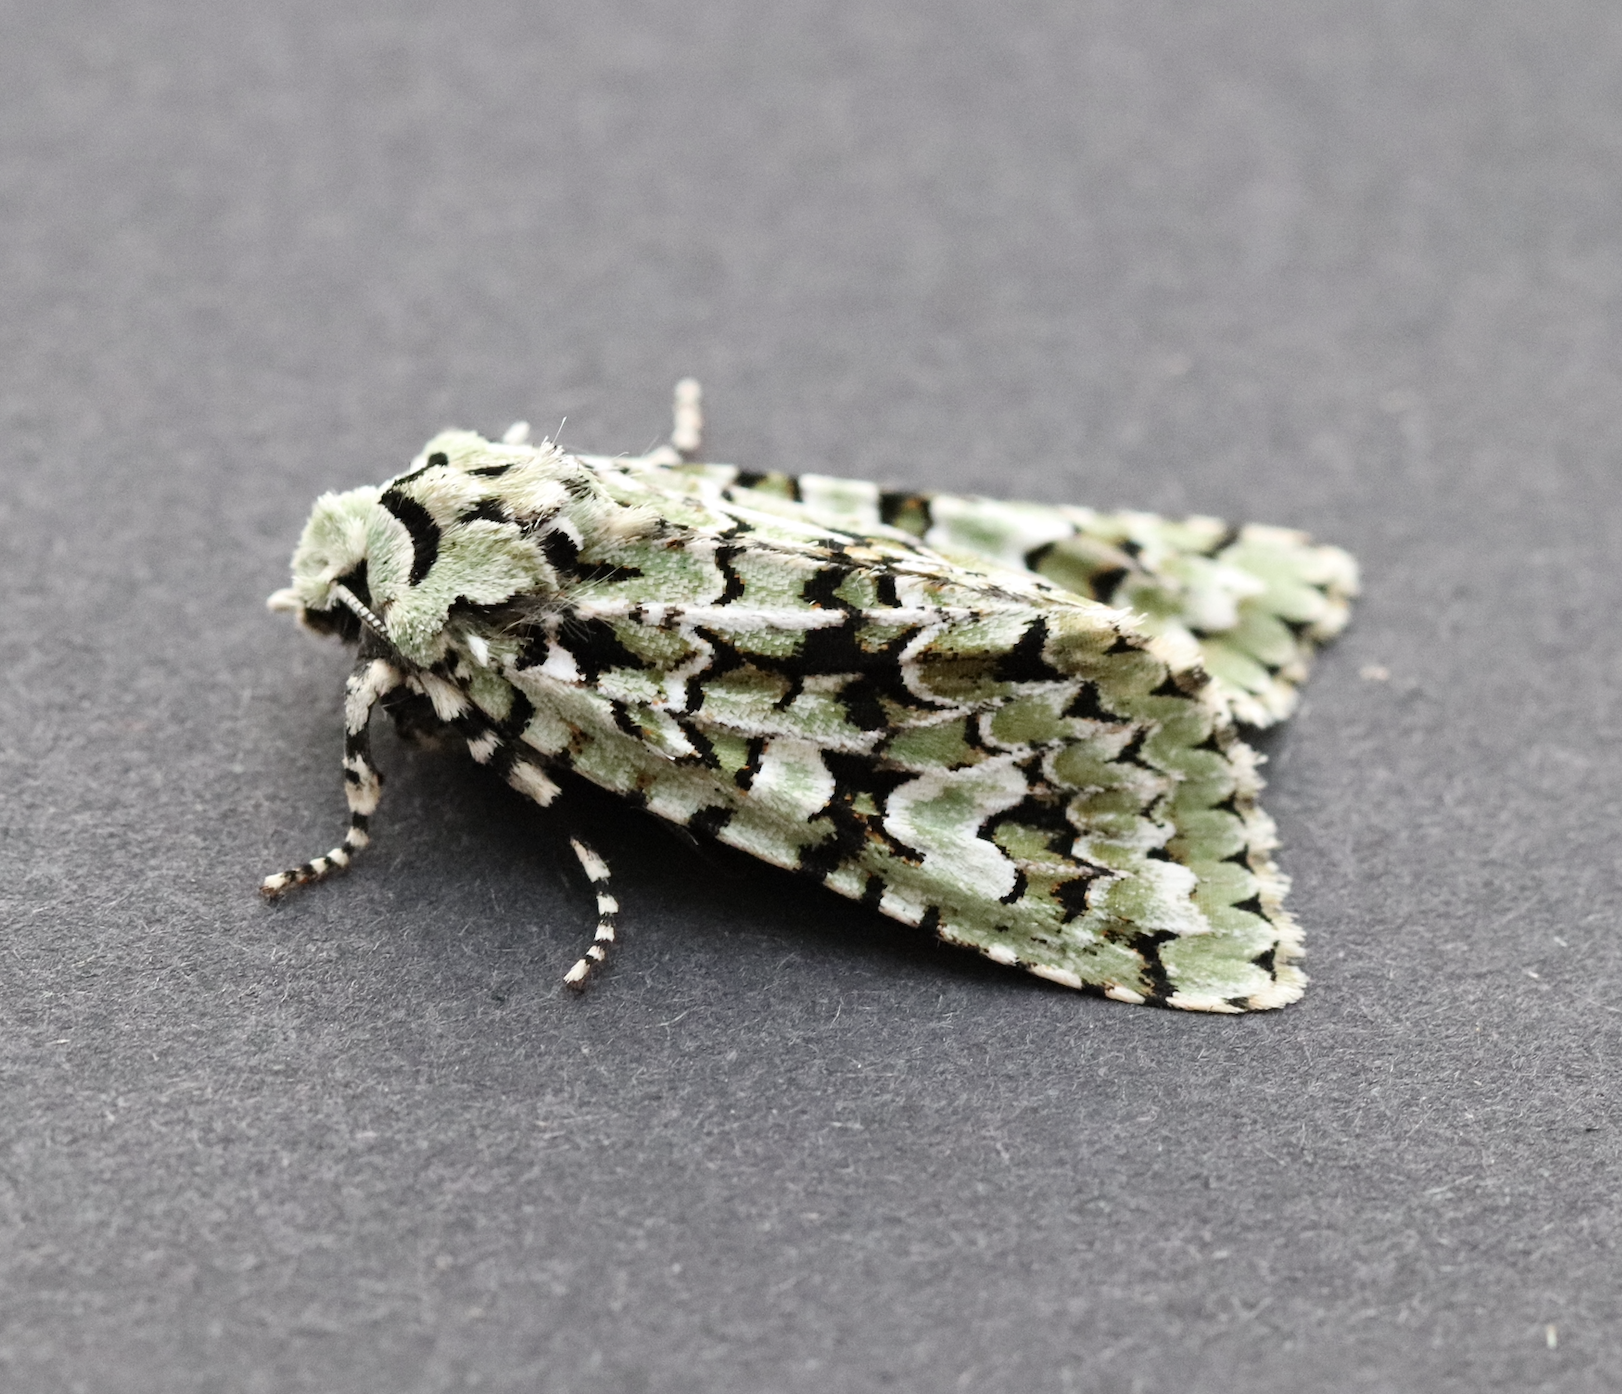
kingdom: Animalia
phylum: Arthropoda
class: Insecta
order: Lepidoptera
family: Noctuidae
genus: Griposia
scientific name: Griposia aprilina
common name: Merveille du jour
